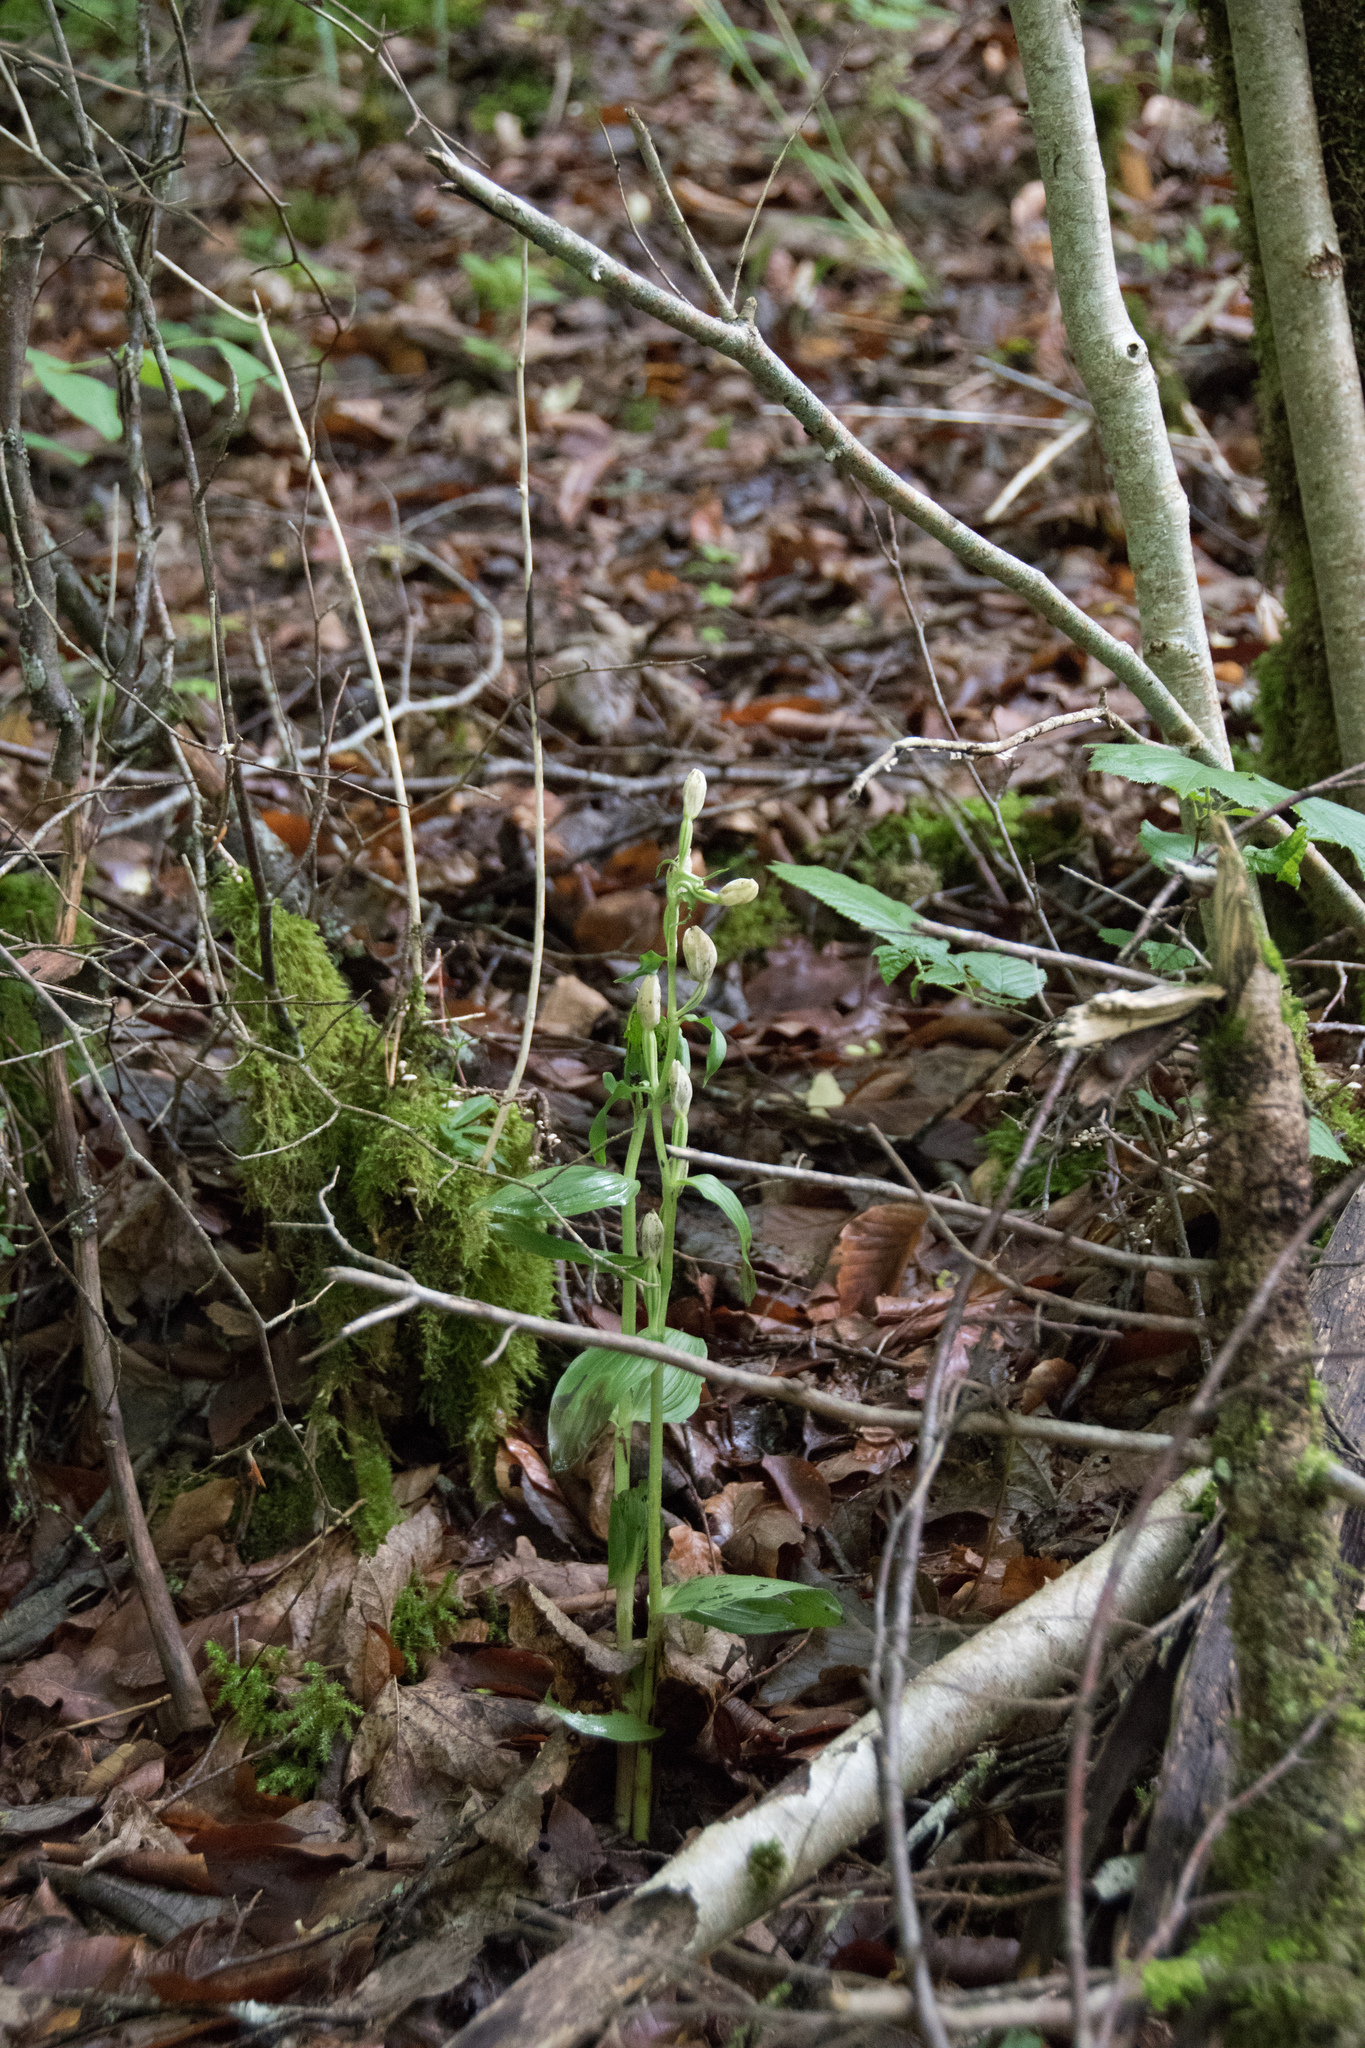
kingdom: Plantae
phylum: Tracheophyta
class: Liliopsida
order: Asparagales
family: Orchidaceae
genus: Cephalanthera
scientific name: Cephalanthera damasonium
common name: White helleborine
